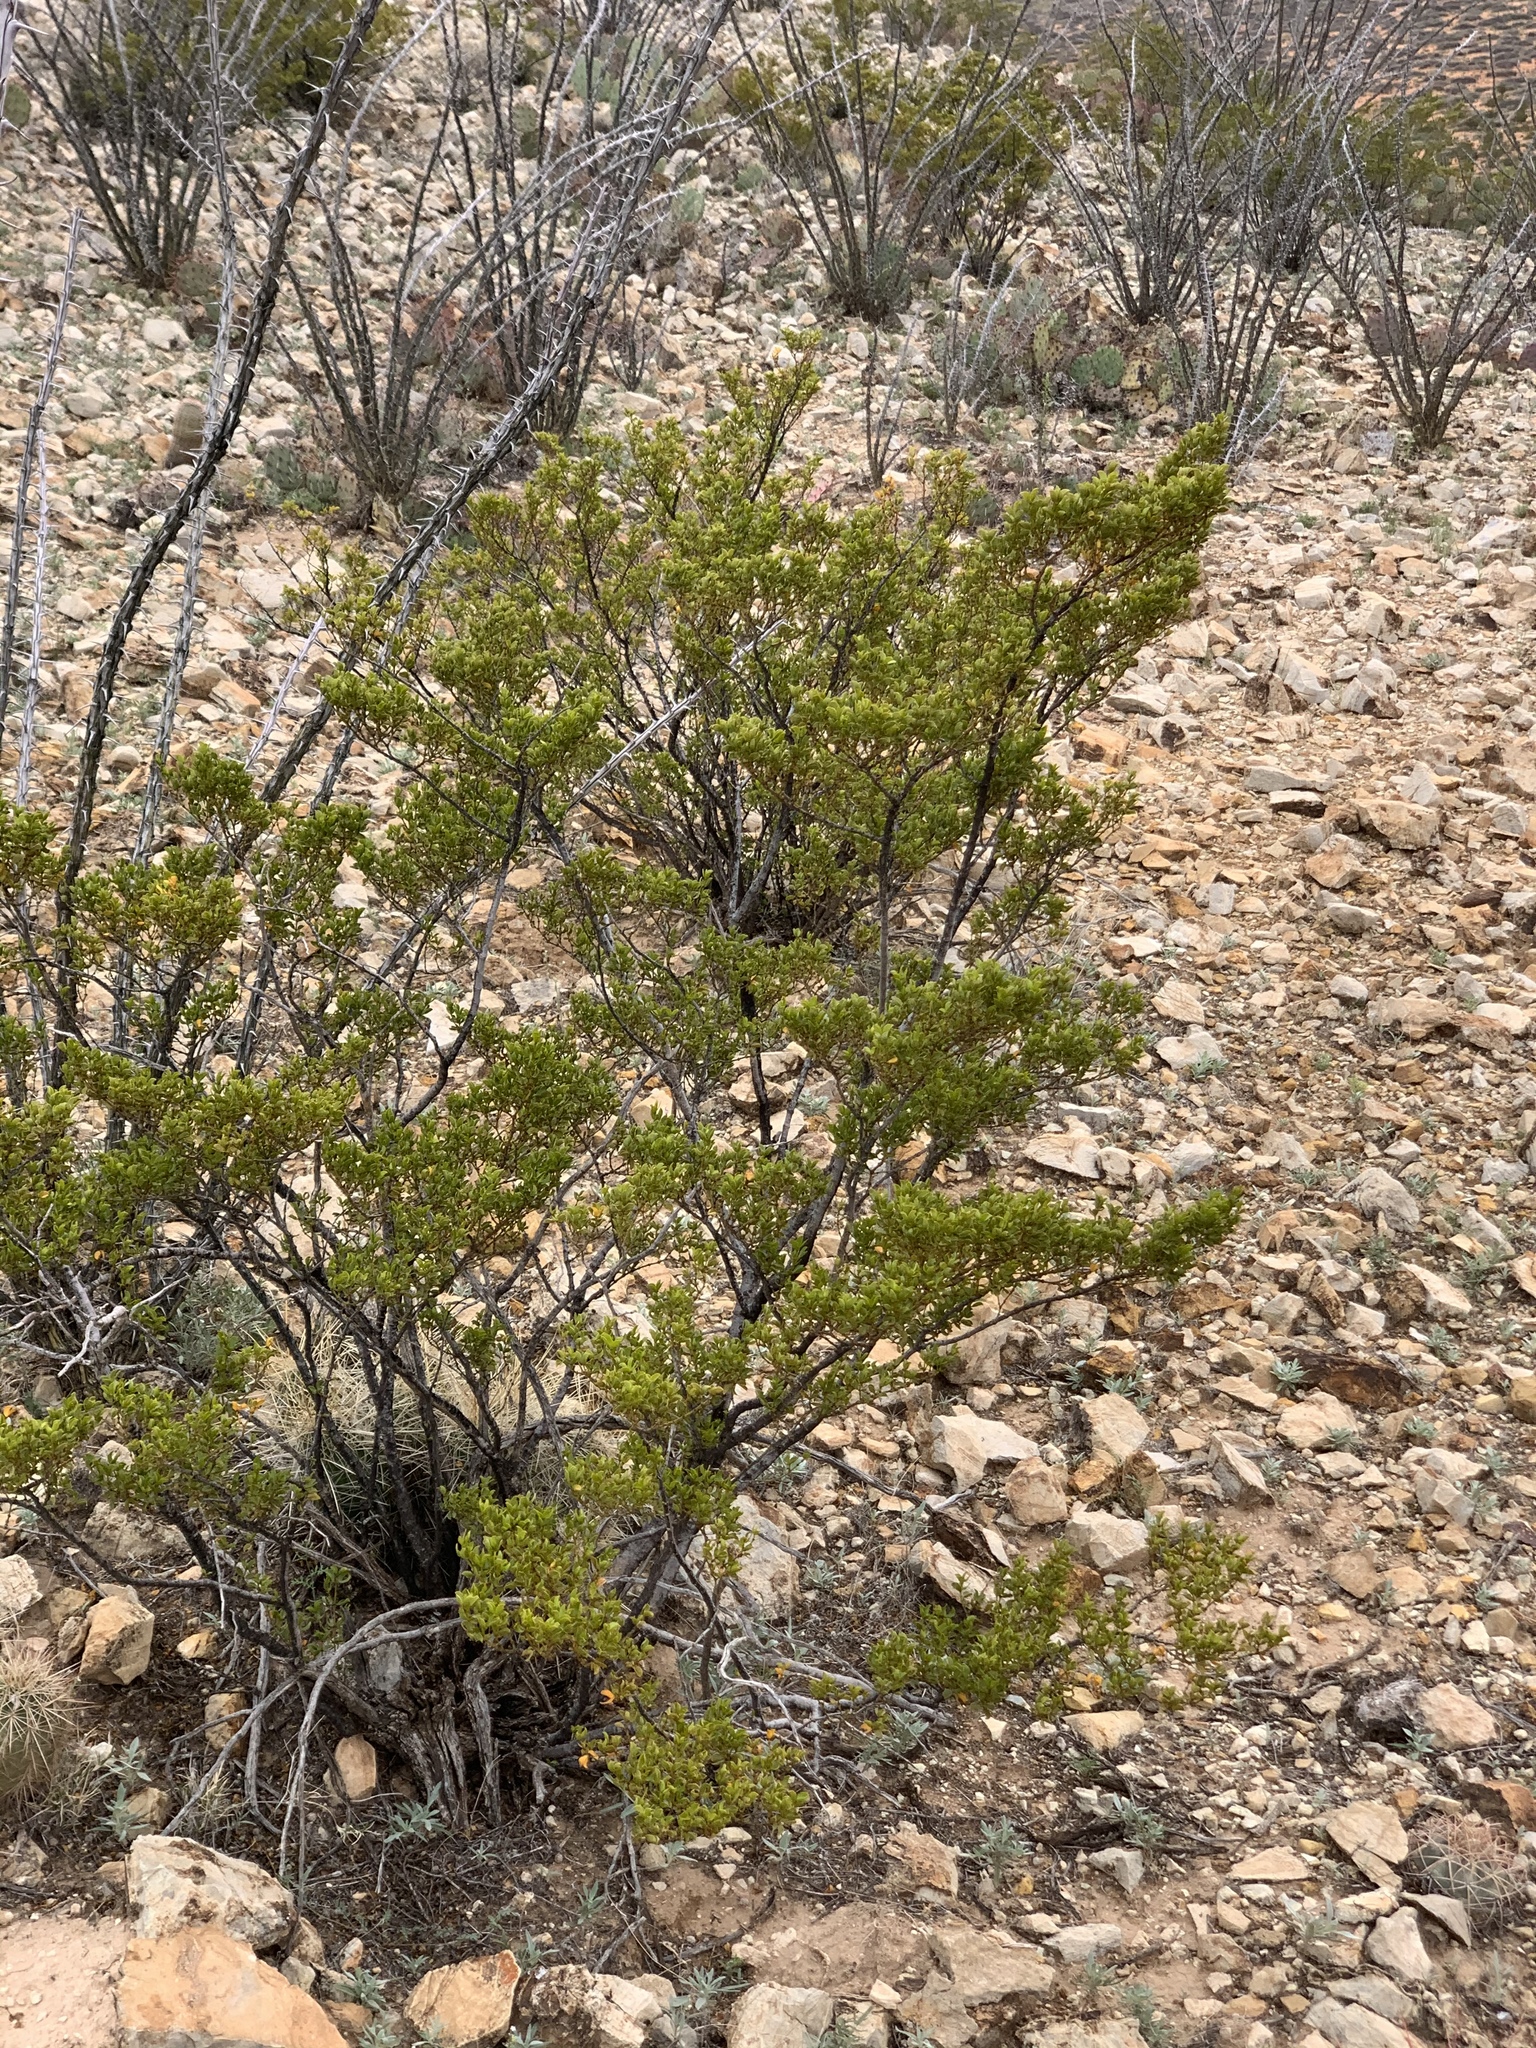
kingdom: Plantae
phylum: Tracheophyta
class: Magnoliopsida
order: Zygophyllales
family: Zygophyllaceae
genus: Larrea
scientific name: Larrea tridentata
